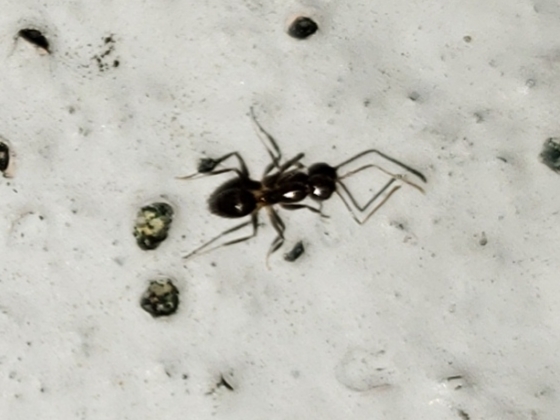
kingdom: Animalia
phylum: Arthropoda
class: Insecta
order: Hymenoptera
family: Formicidae
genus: Nylanderia
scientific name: Nylanderia steinheili
